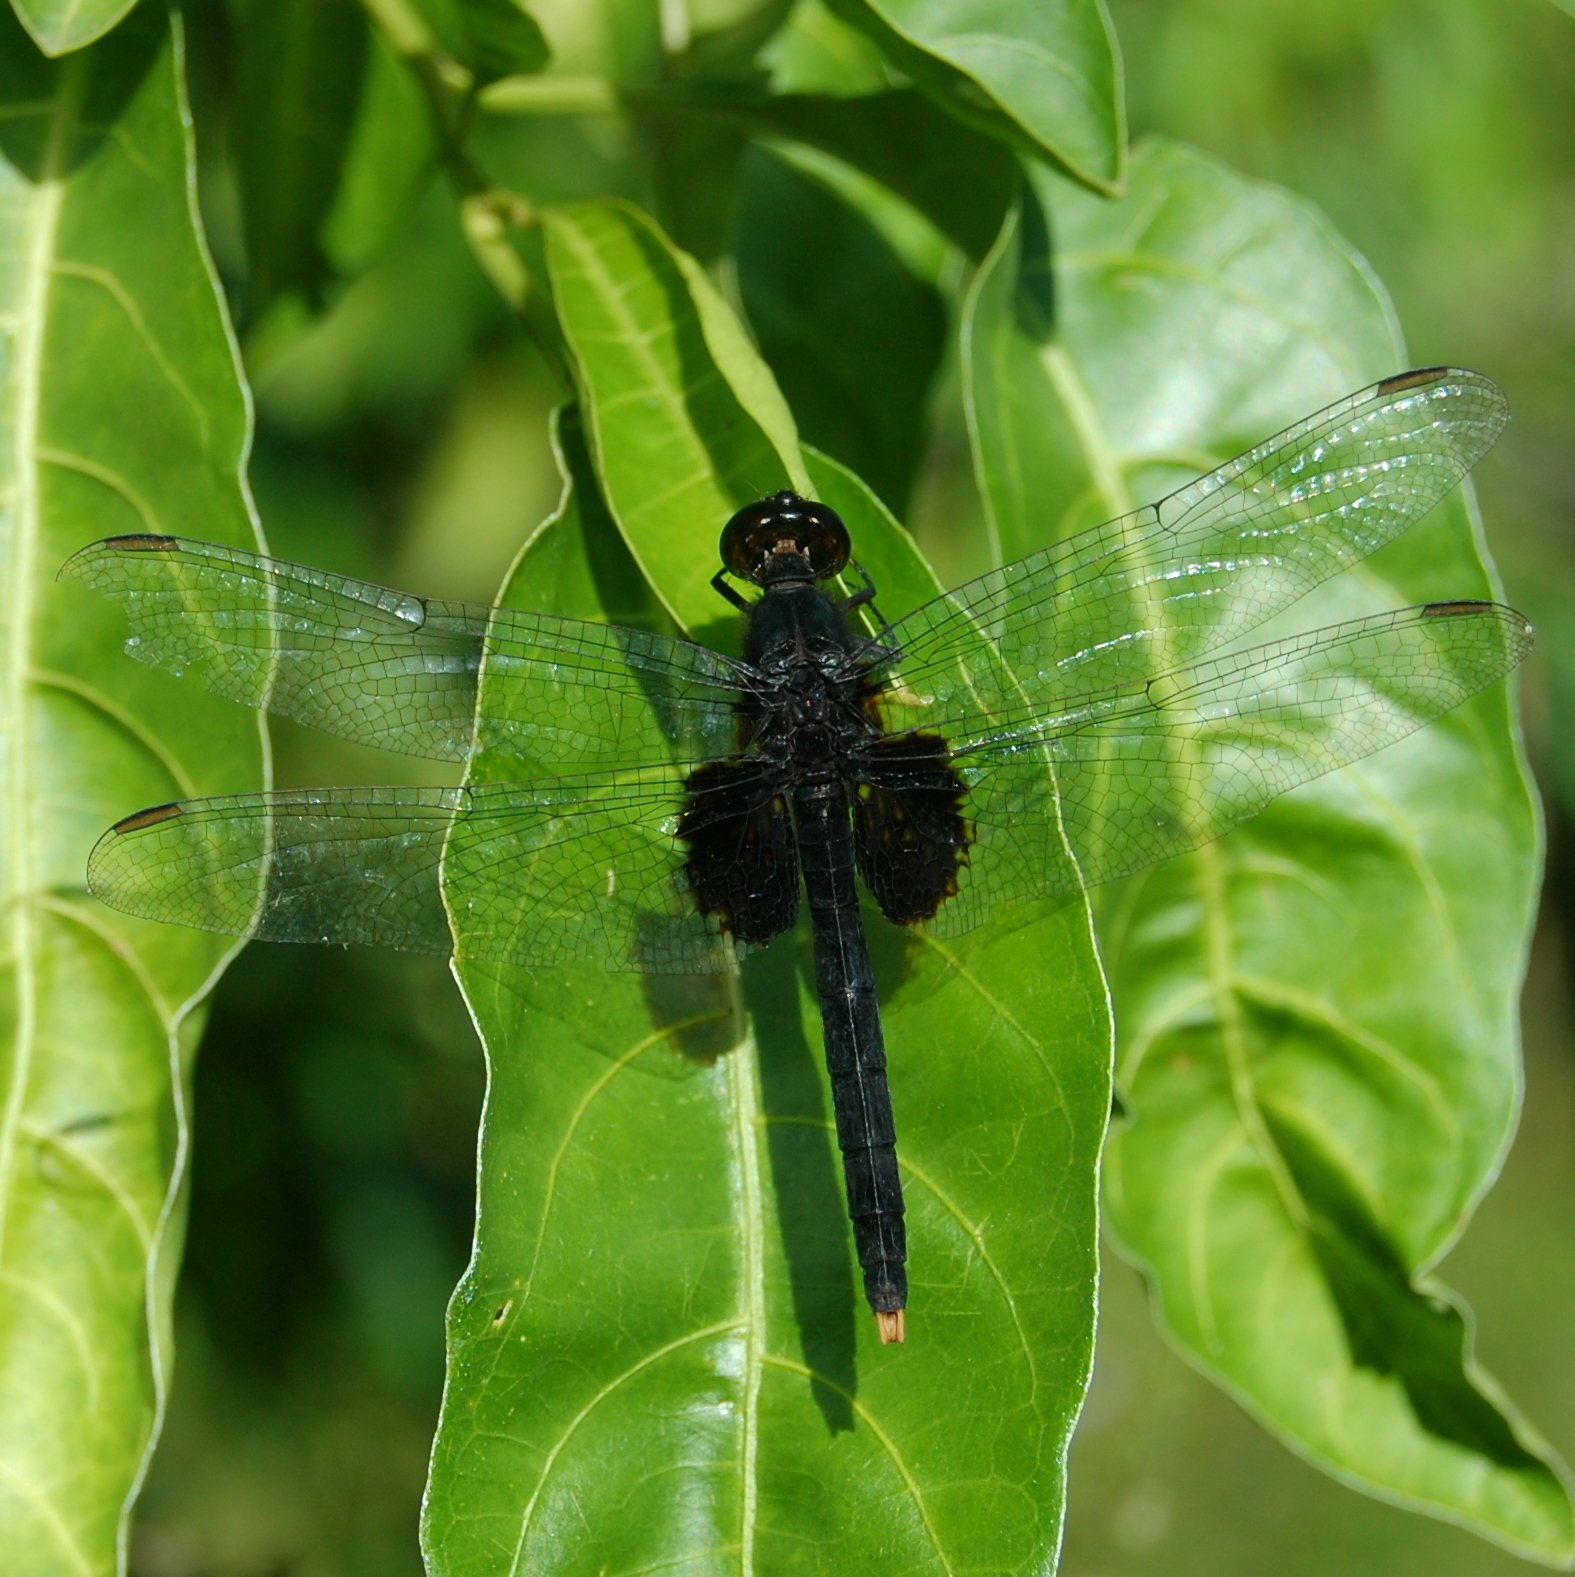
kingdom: Animalia
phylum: Arthropoda
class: Insecta
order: Odonata
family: Libellulidae
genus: Erythemis
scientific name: Erythemis attala
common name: Black pondhawk
